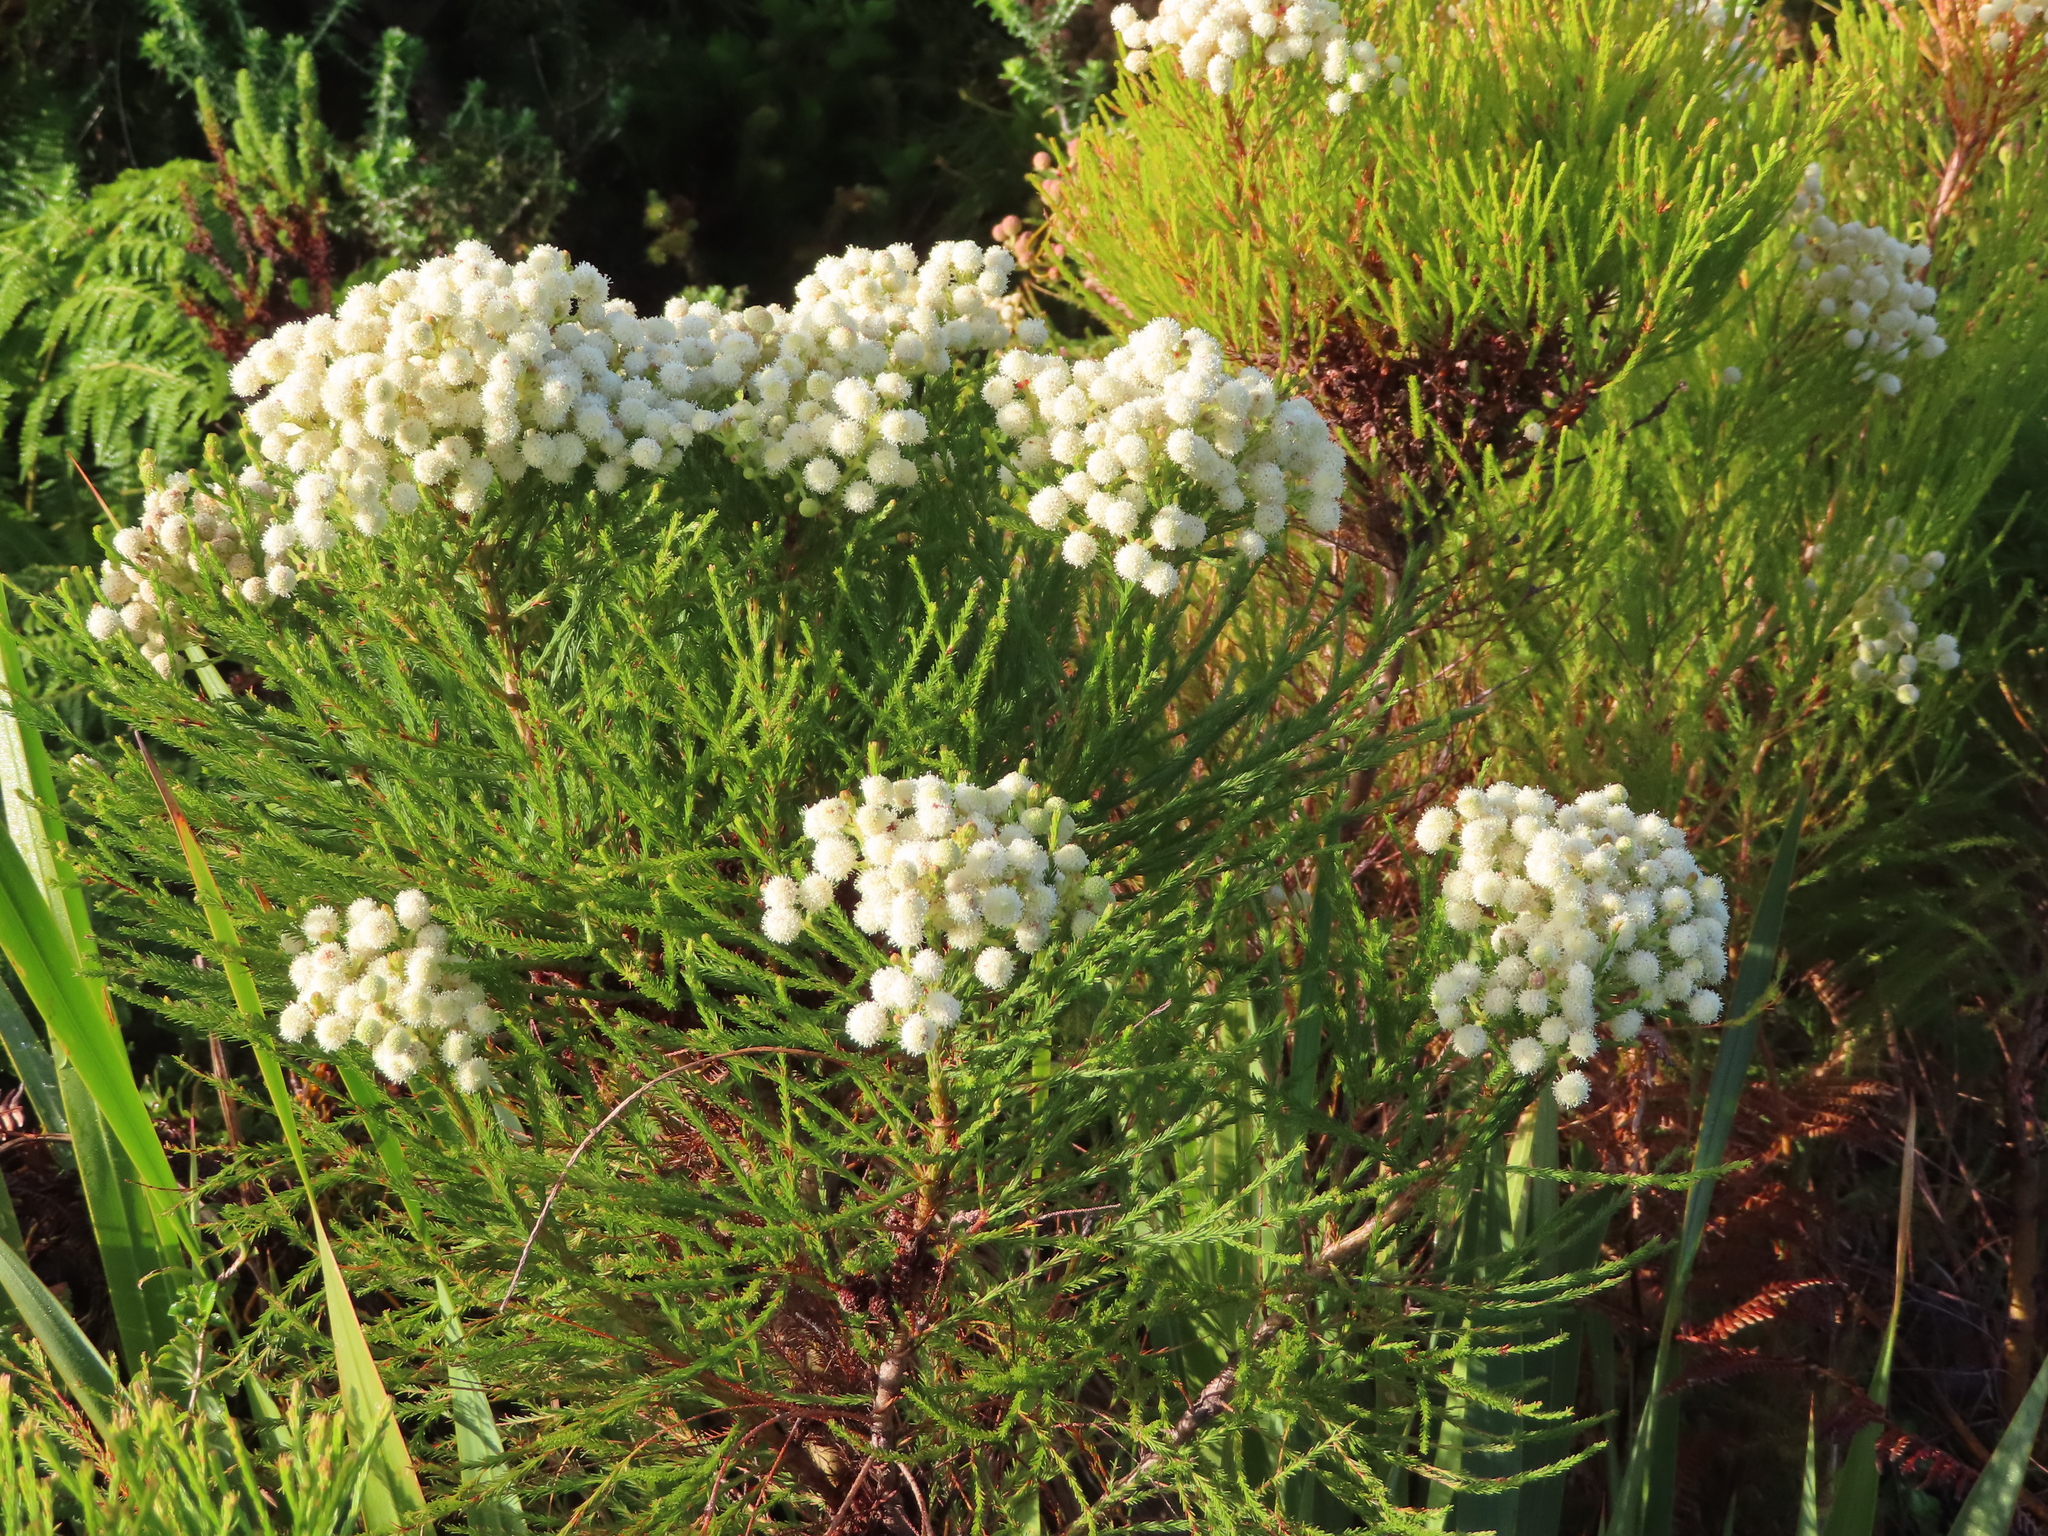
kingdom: Plantae
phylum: Tracheophyta
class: Magnoliopsida
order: Bruniales
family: Bruniaceae
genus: Berzelia
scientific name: Berzelia lanuginosa
